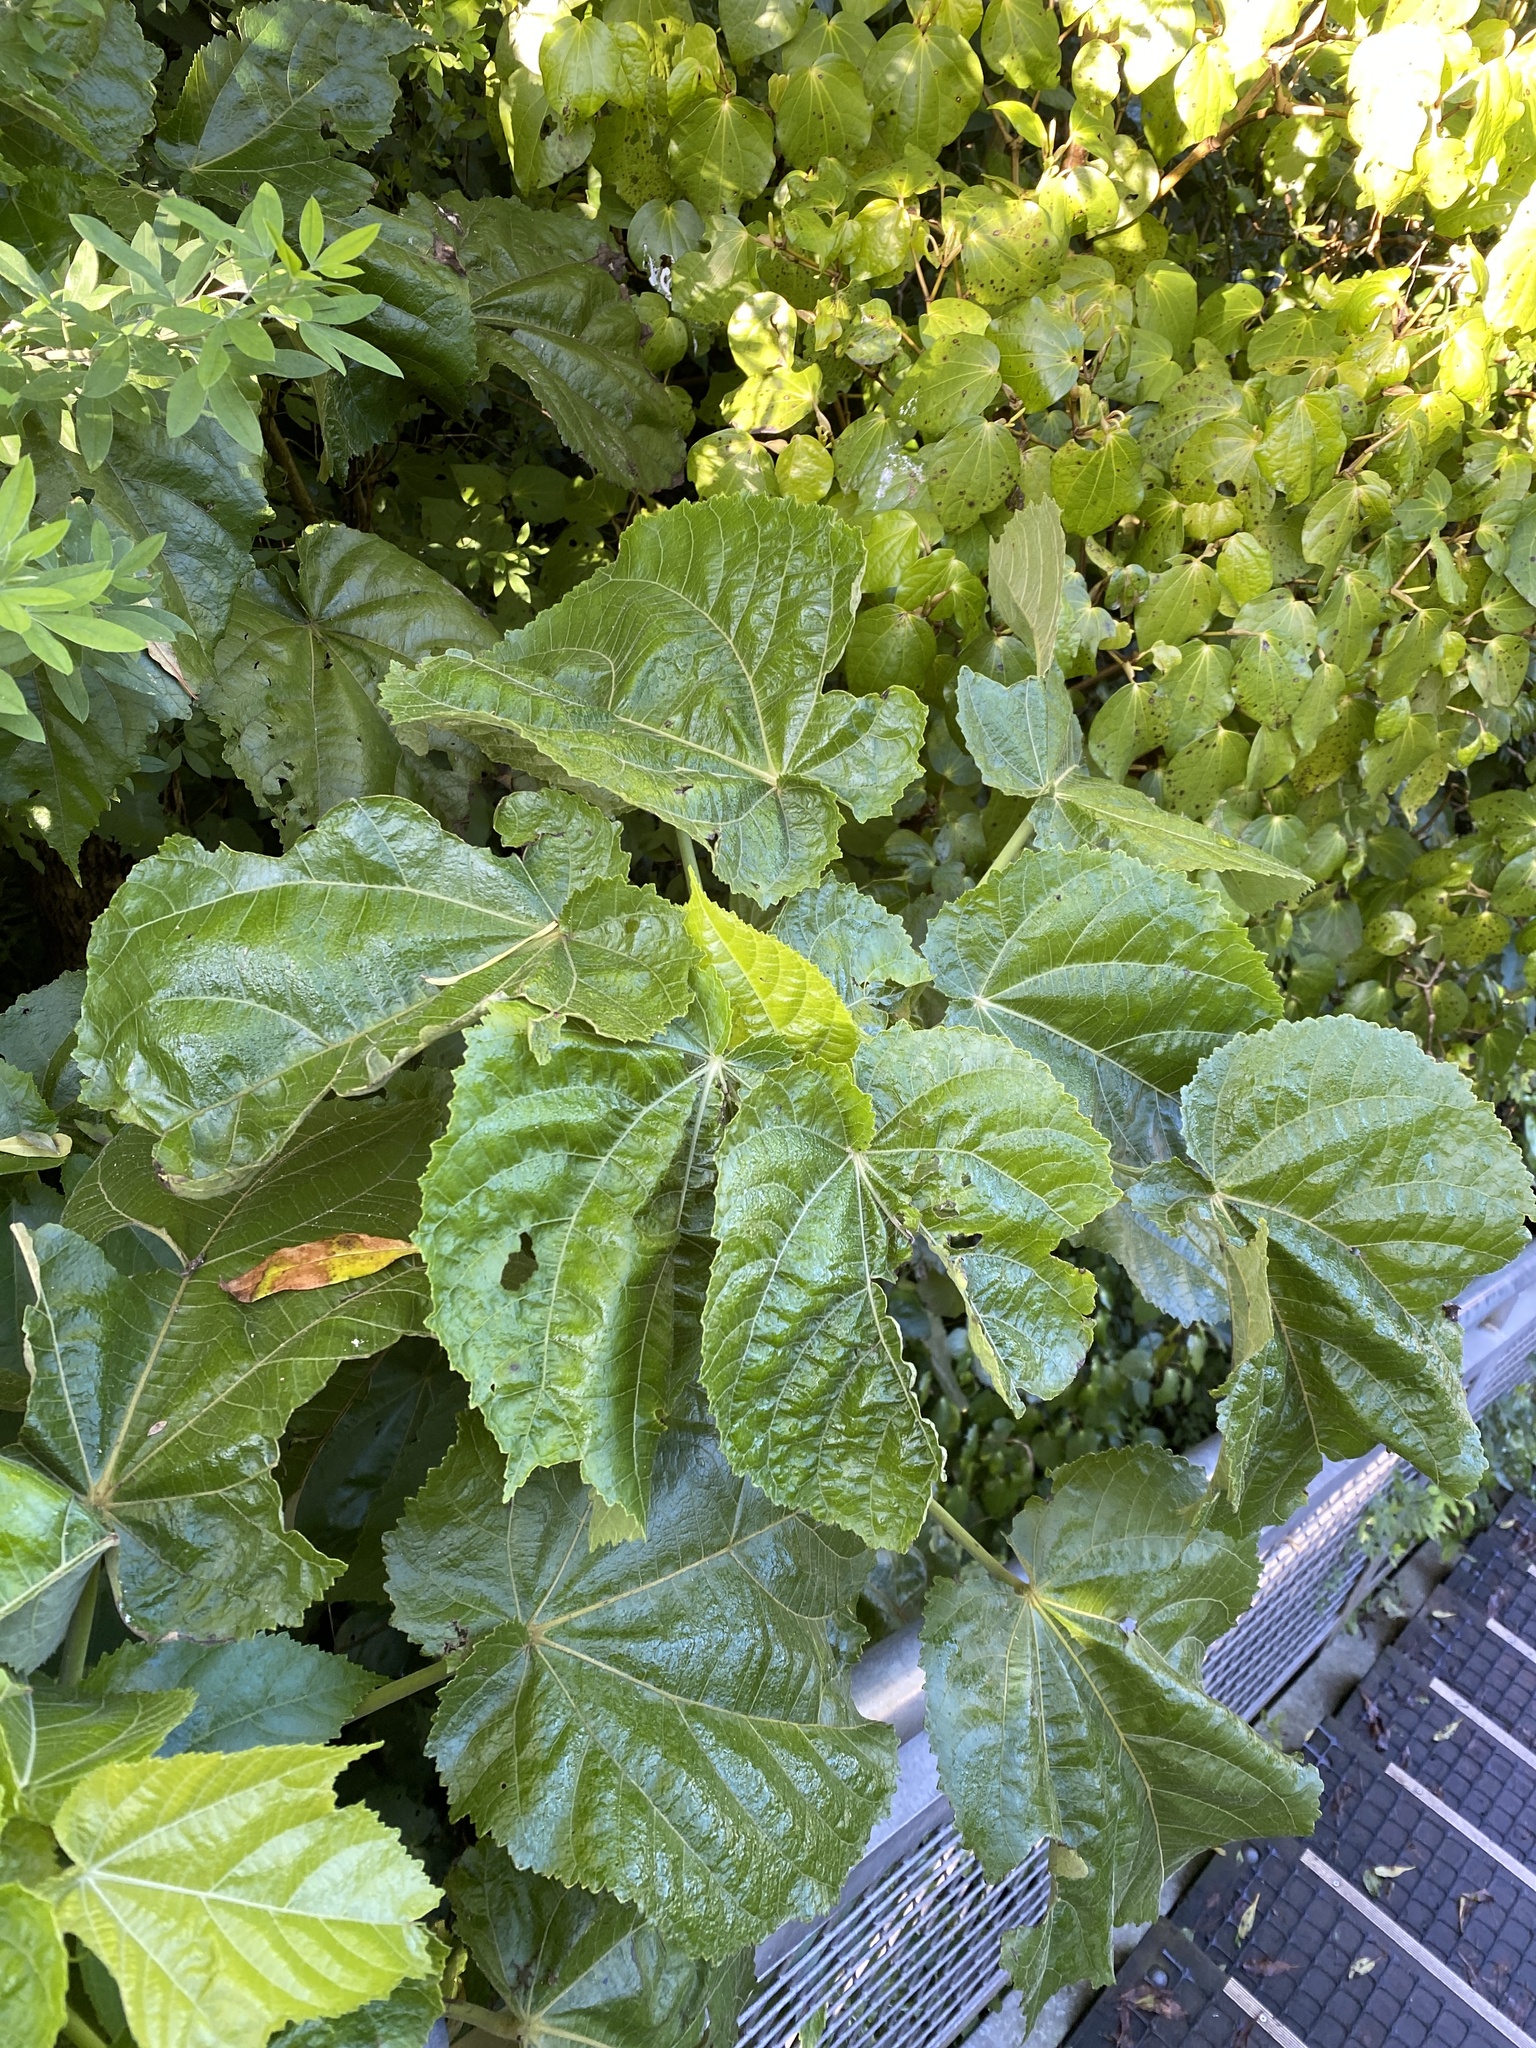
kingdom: Plantae
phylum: Tracheophyta
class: Magnoliopsida
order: Malvales
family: Malvaceae
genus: Entelea
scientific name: Entelea arborescens
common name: New zealand-mulberry
